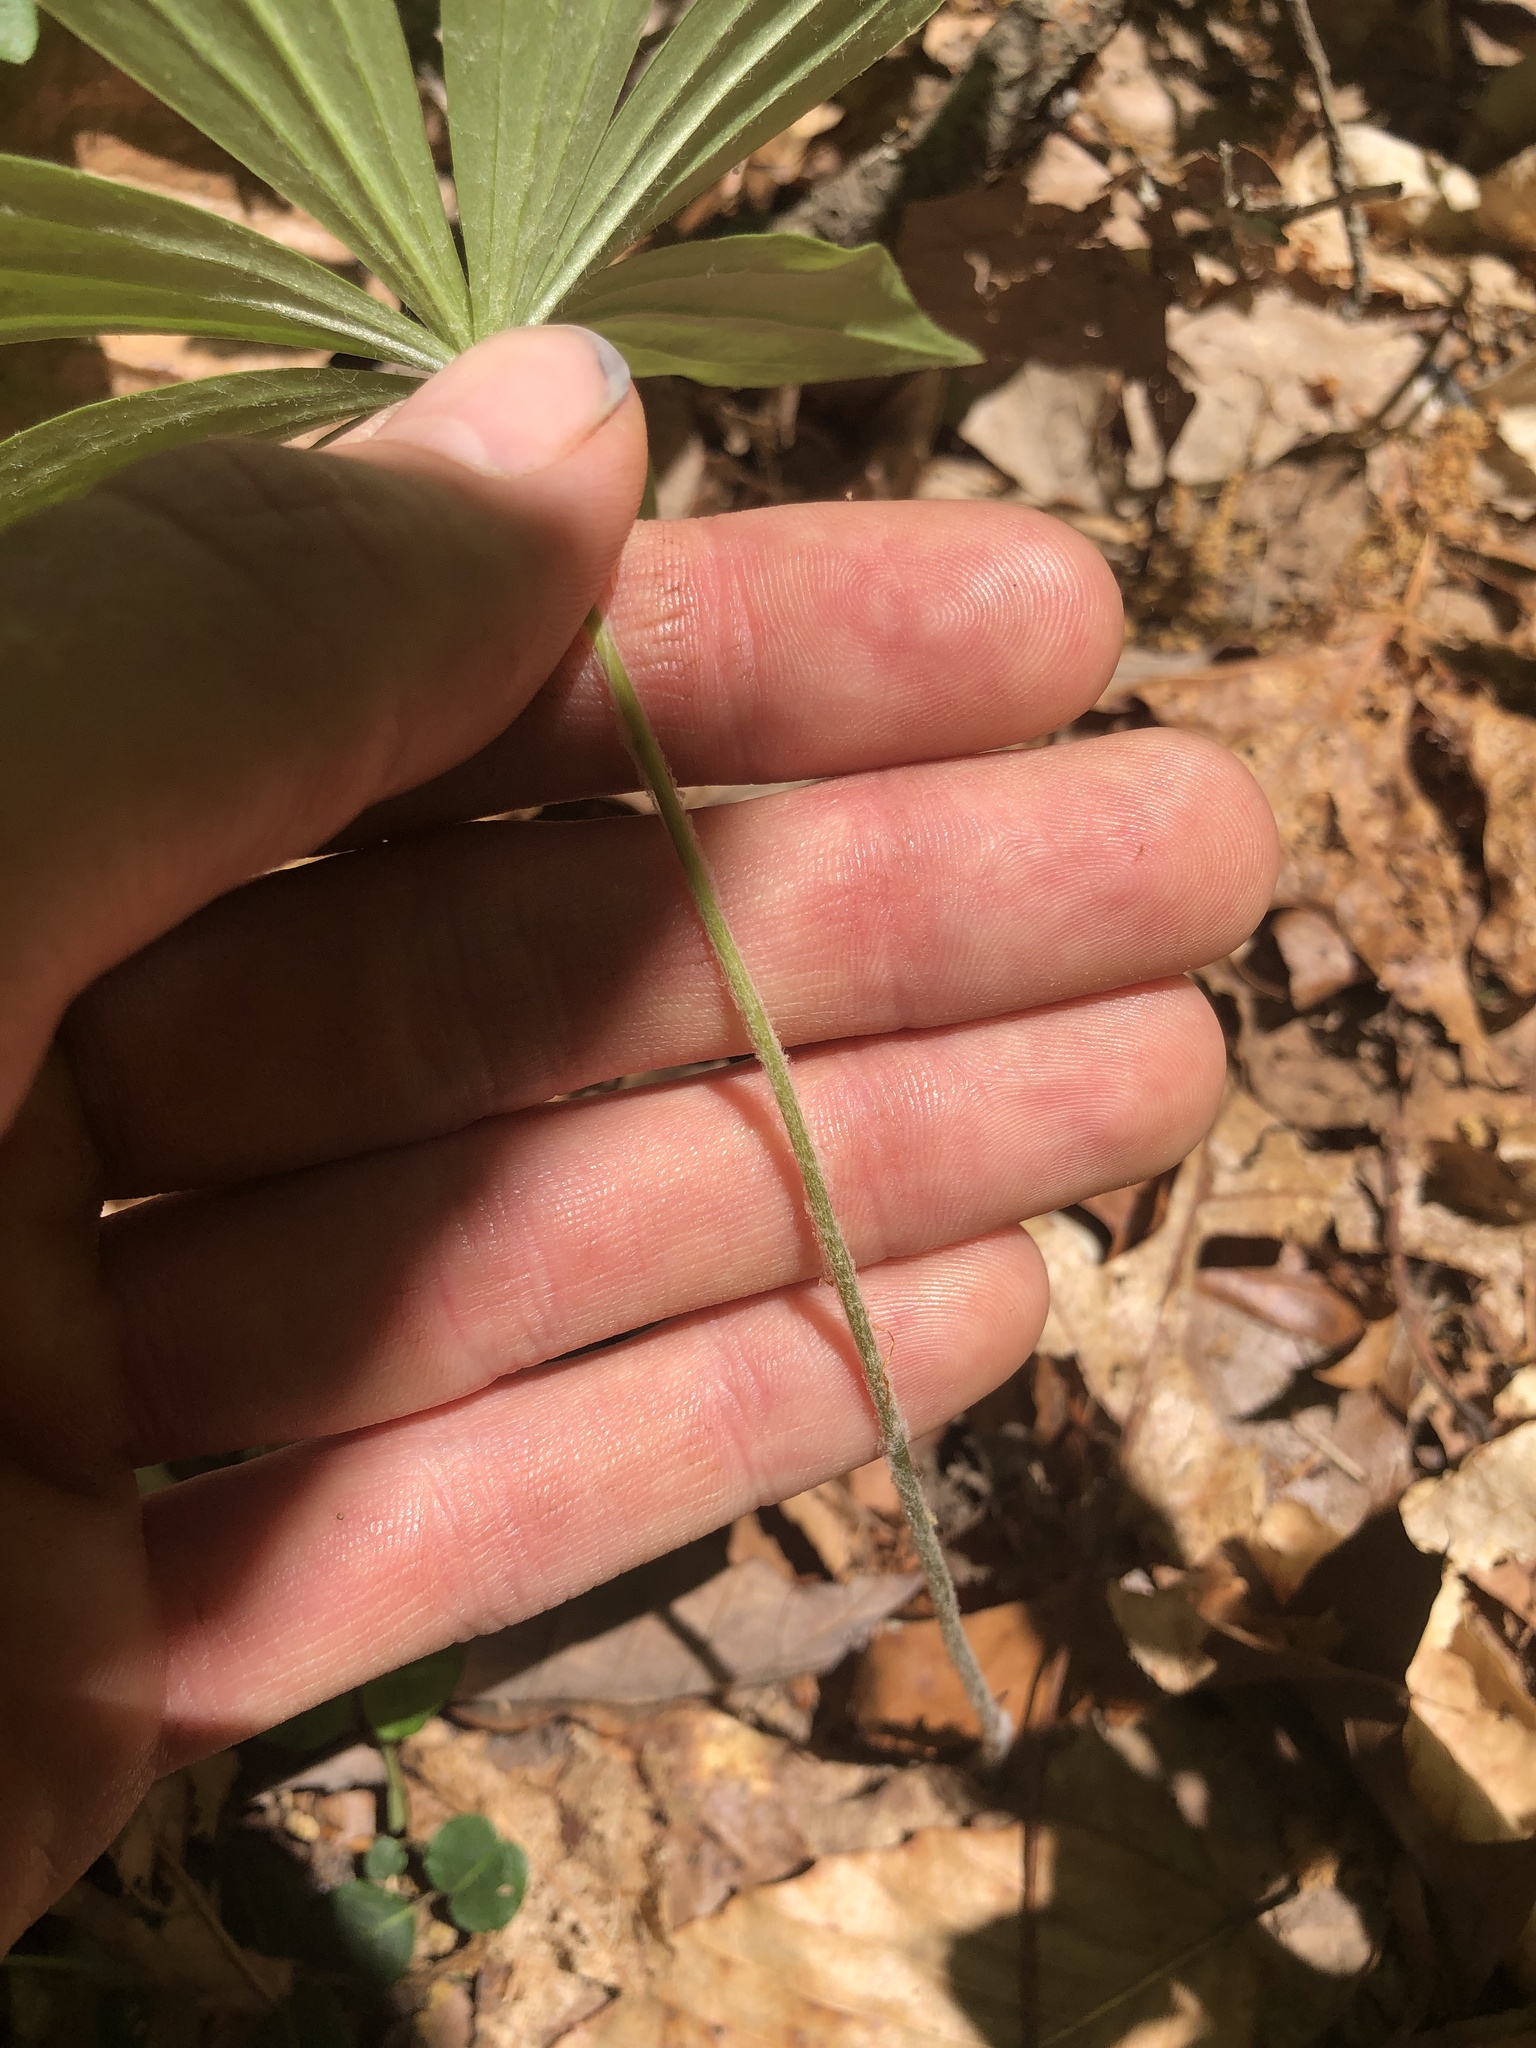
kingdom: Plantae
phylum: Tracheophyta
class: Liliopsida
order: Liliales
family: Liliaceae
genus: Medeola
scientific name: Medeola virginiana
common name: Indian cucumber-root
